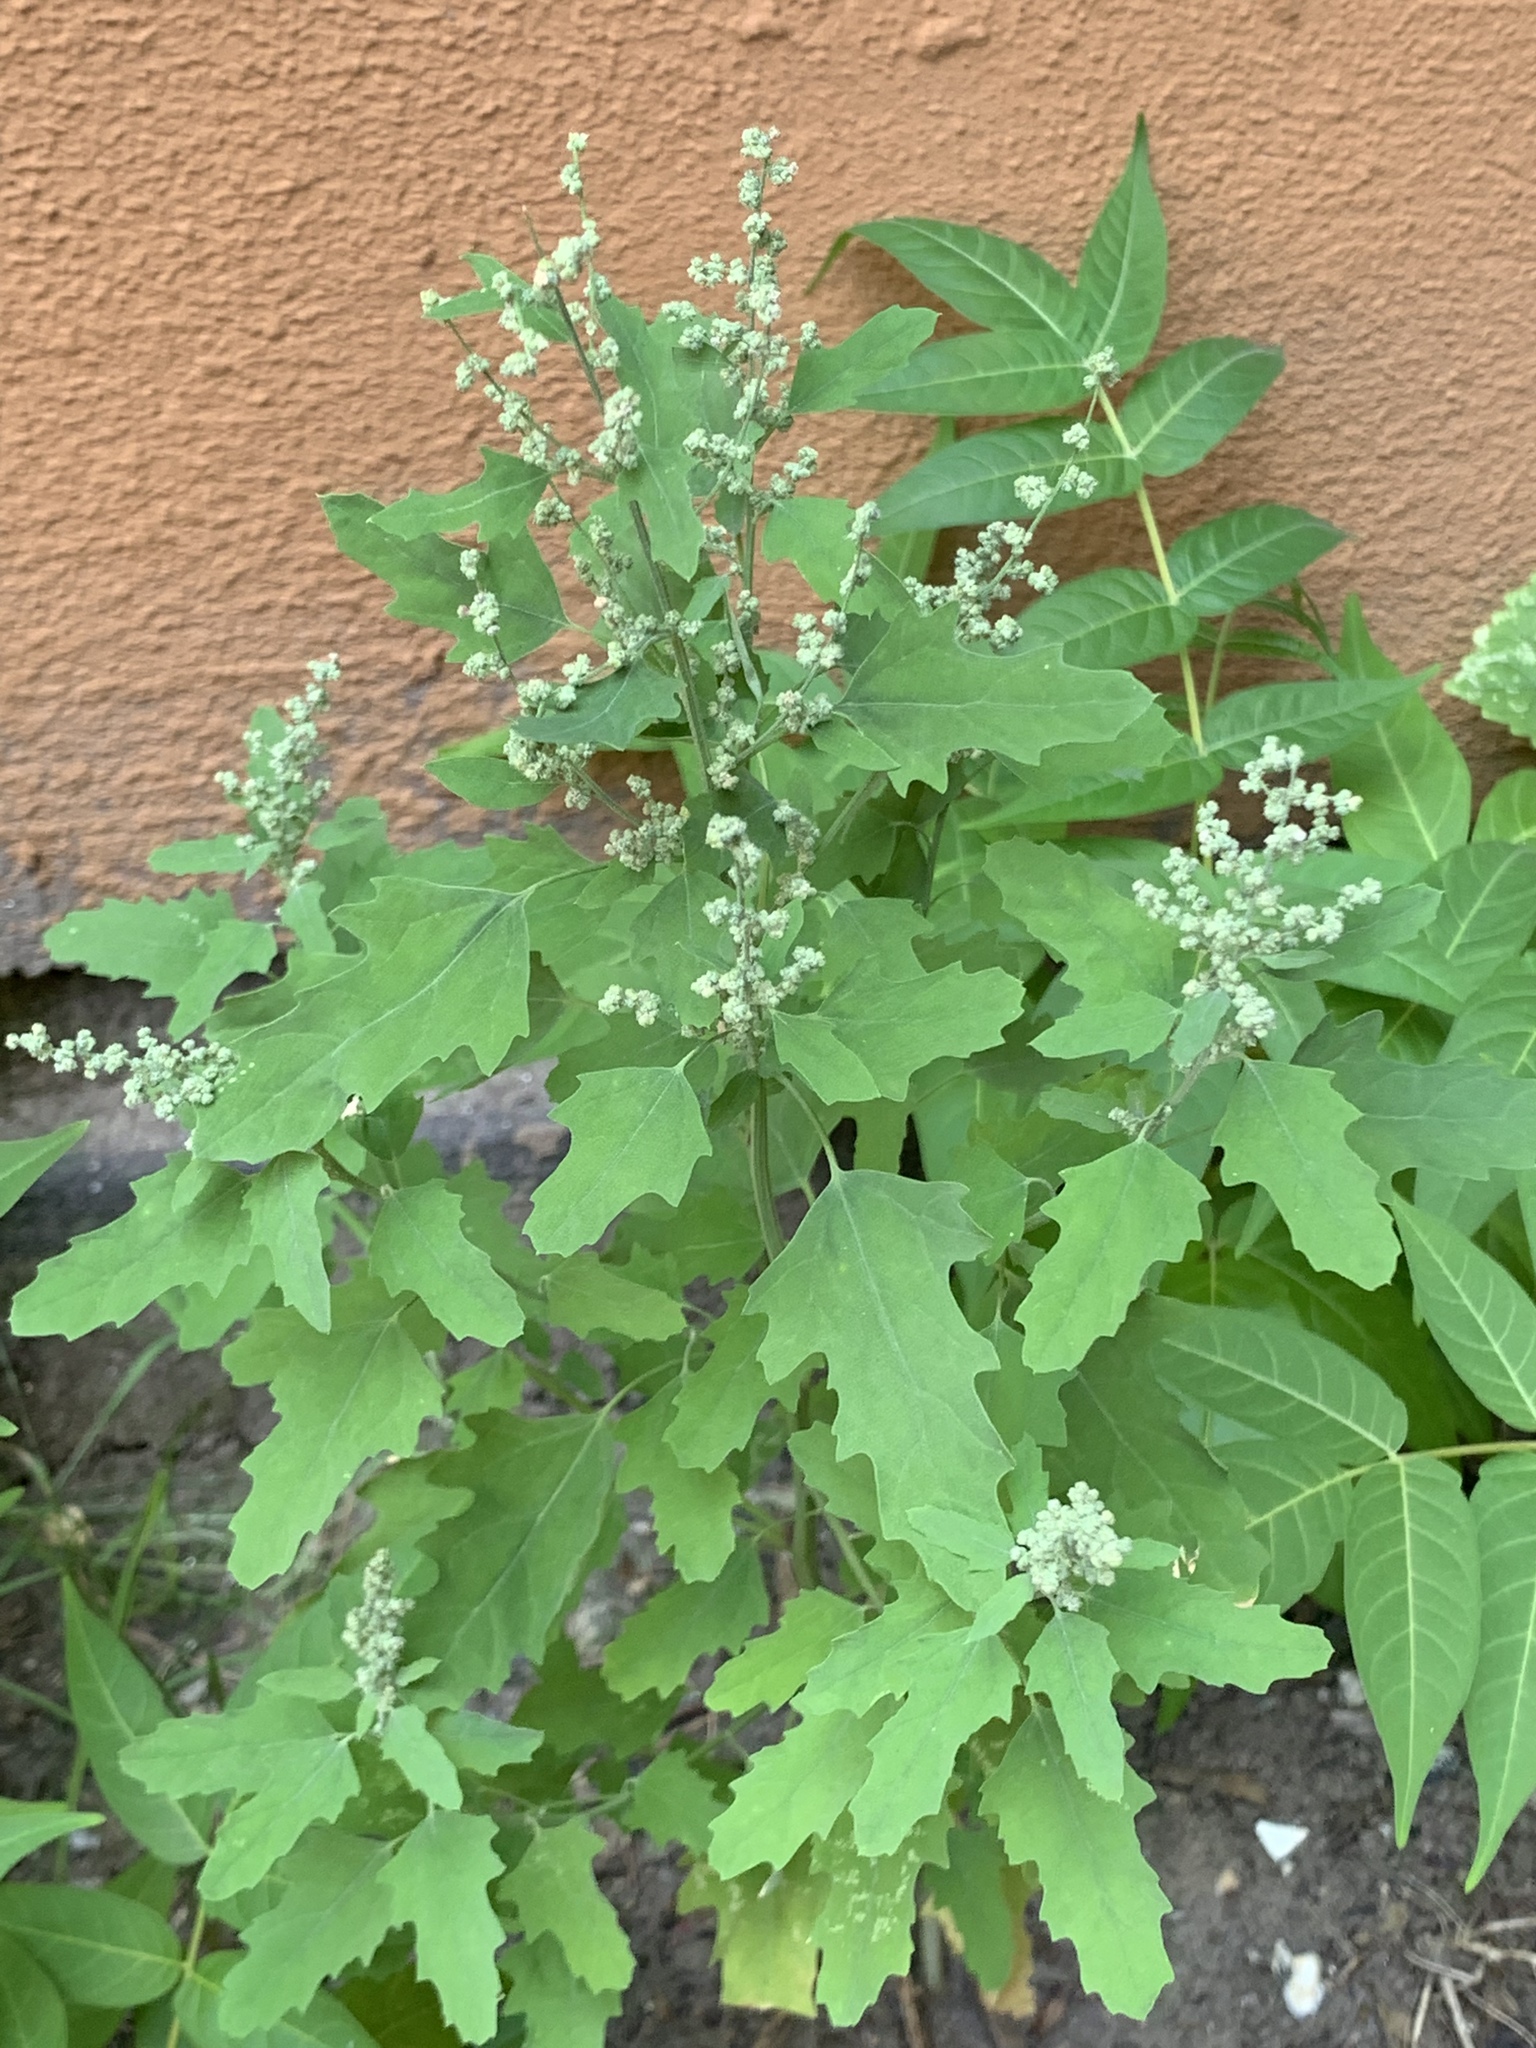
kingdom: Plantae
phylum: Tracheophyta
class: Magnoliopsida
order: Caryophyllales
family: Amaranthaceae
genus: Chenopodium
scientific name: Chenopodium album
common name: Fat-hen
